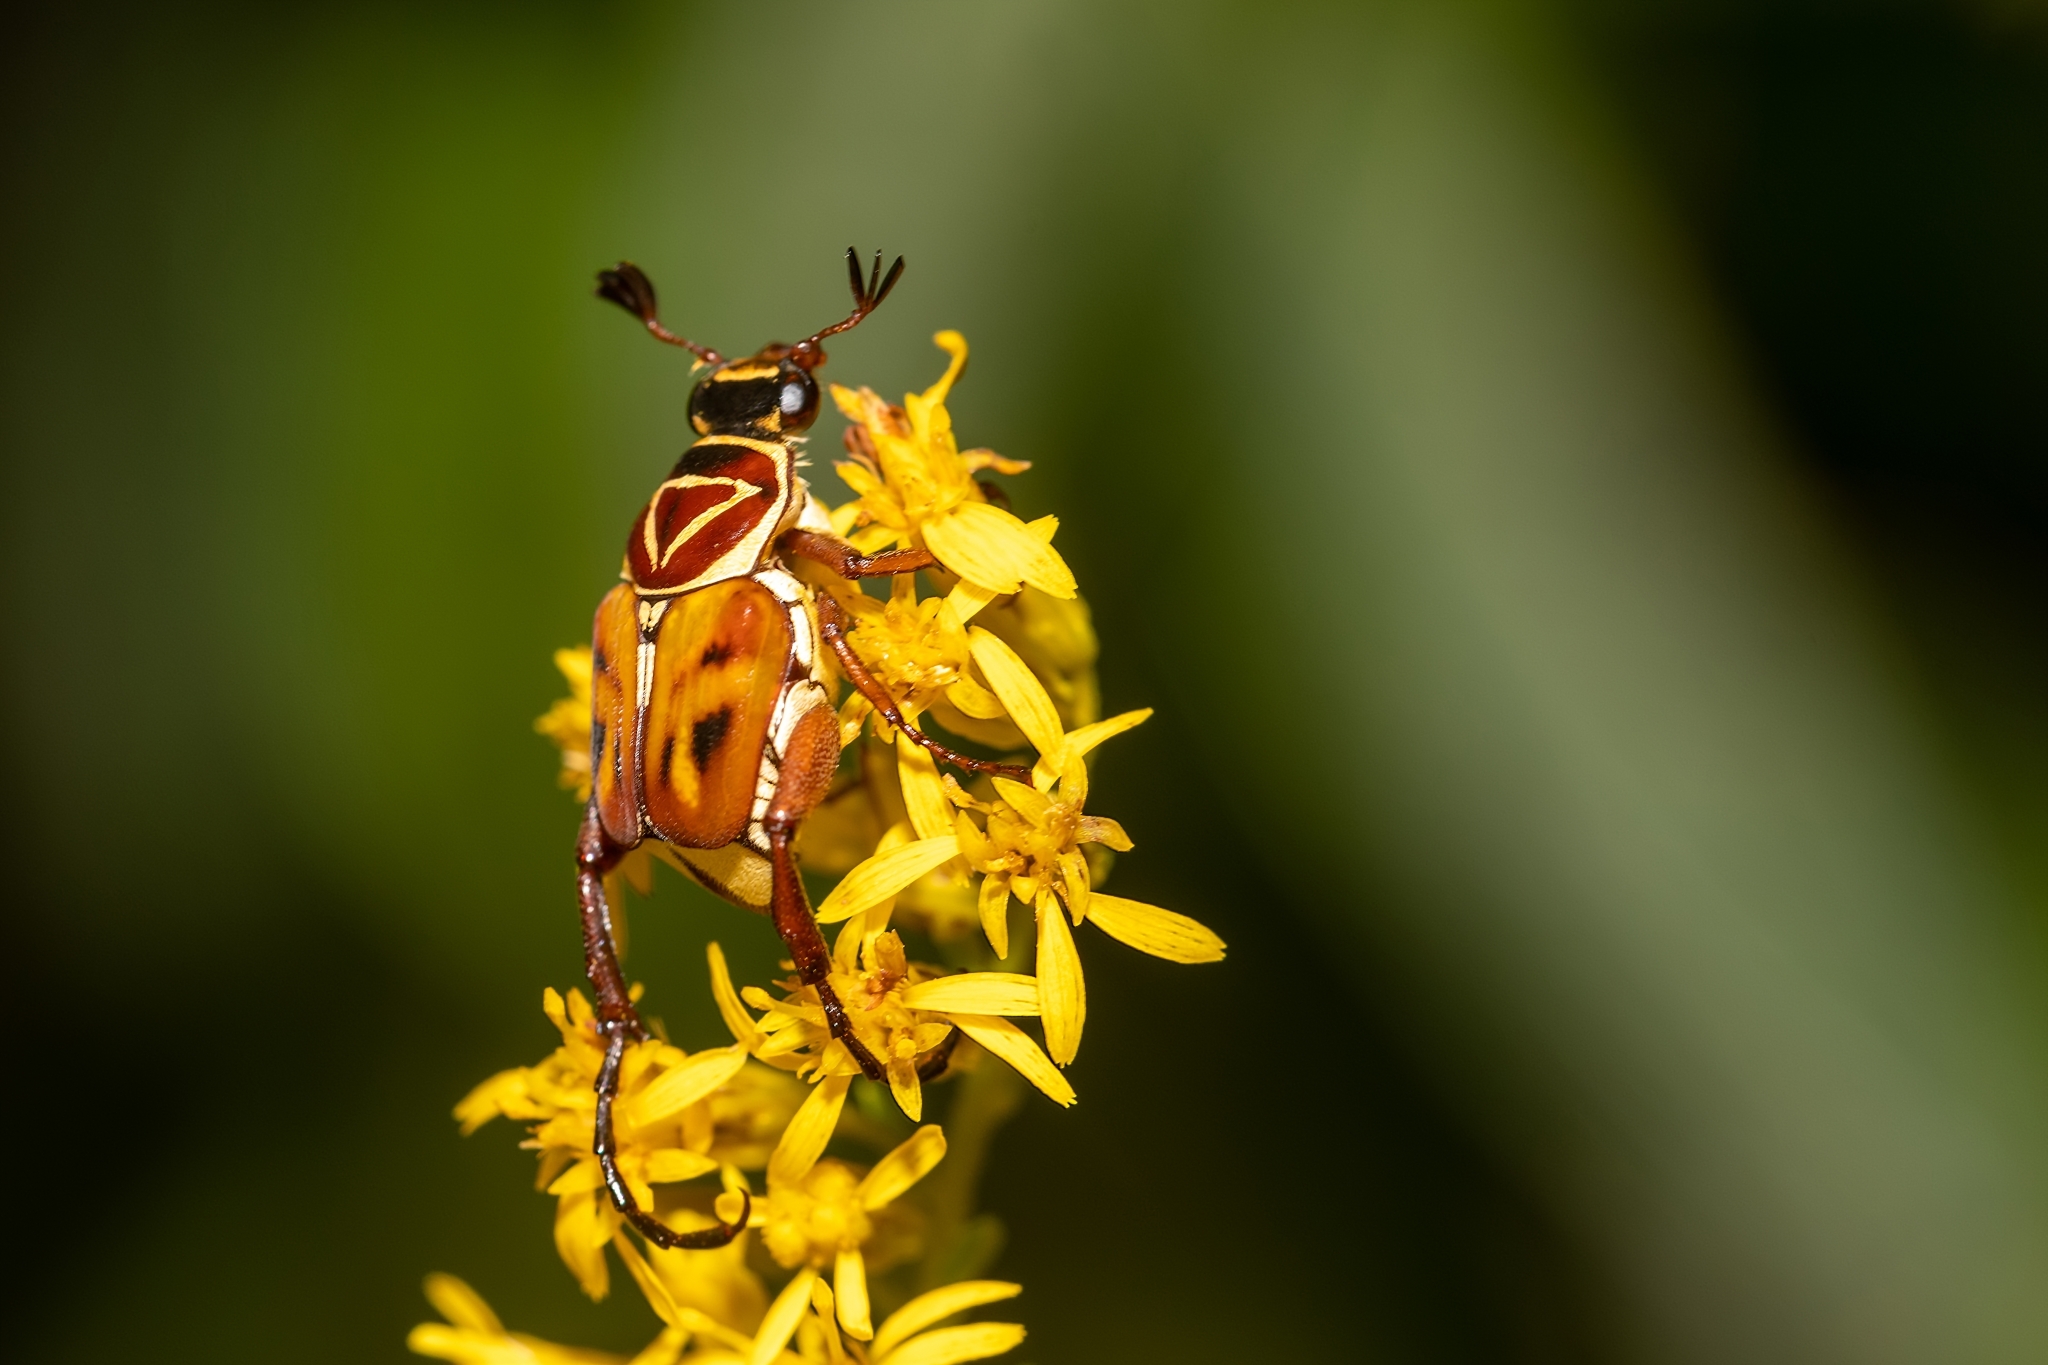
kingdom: Animalia
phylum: Arthropoda
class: Insecta
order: Coleoptera
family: Scarabaeidae
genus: Trigonopeltastes
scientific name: Trigonopeltastes delta
